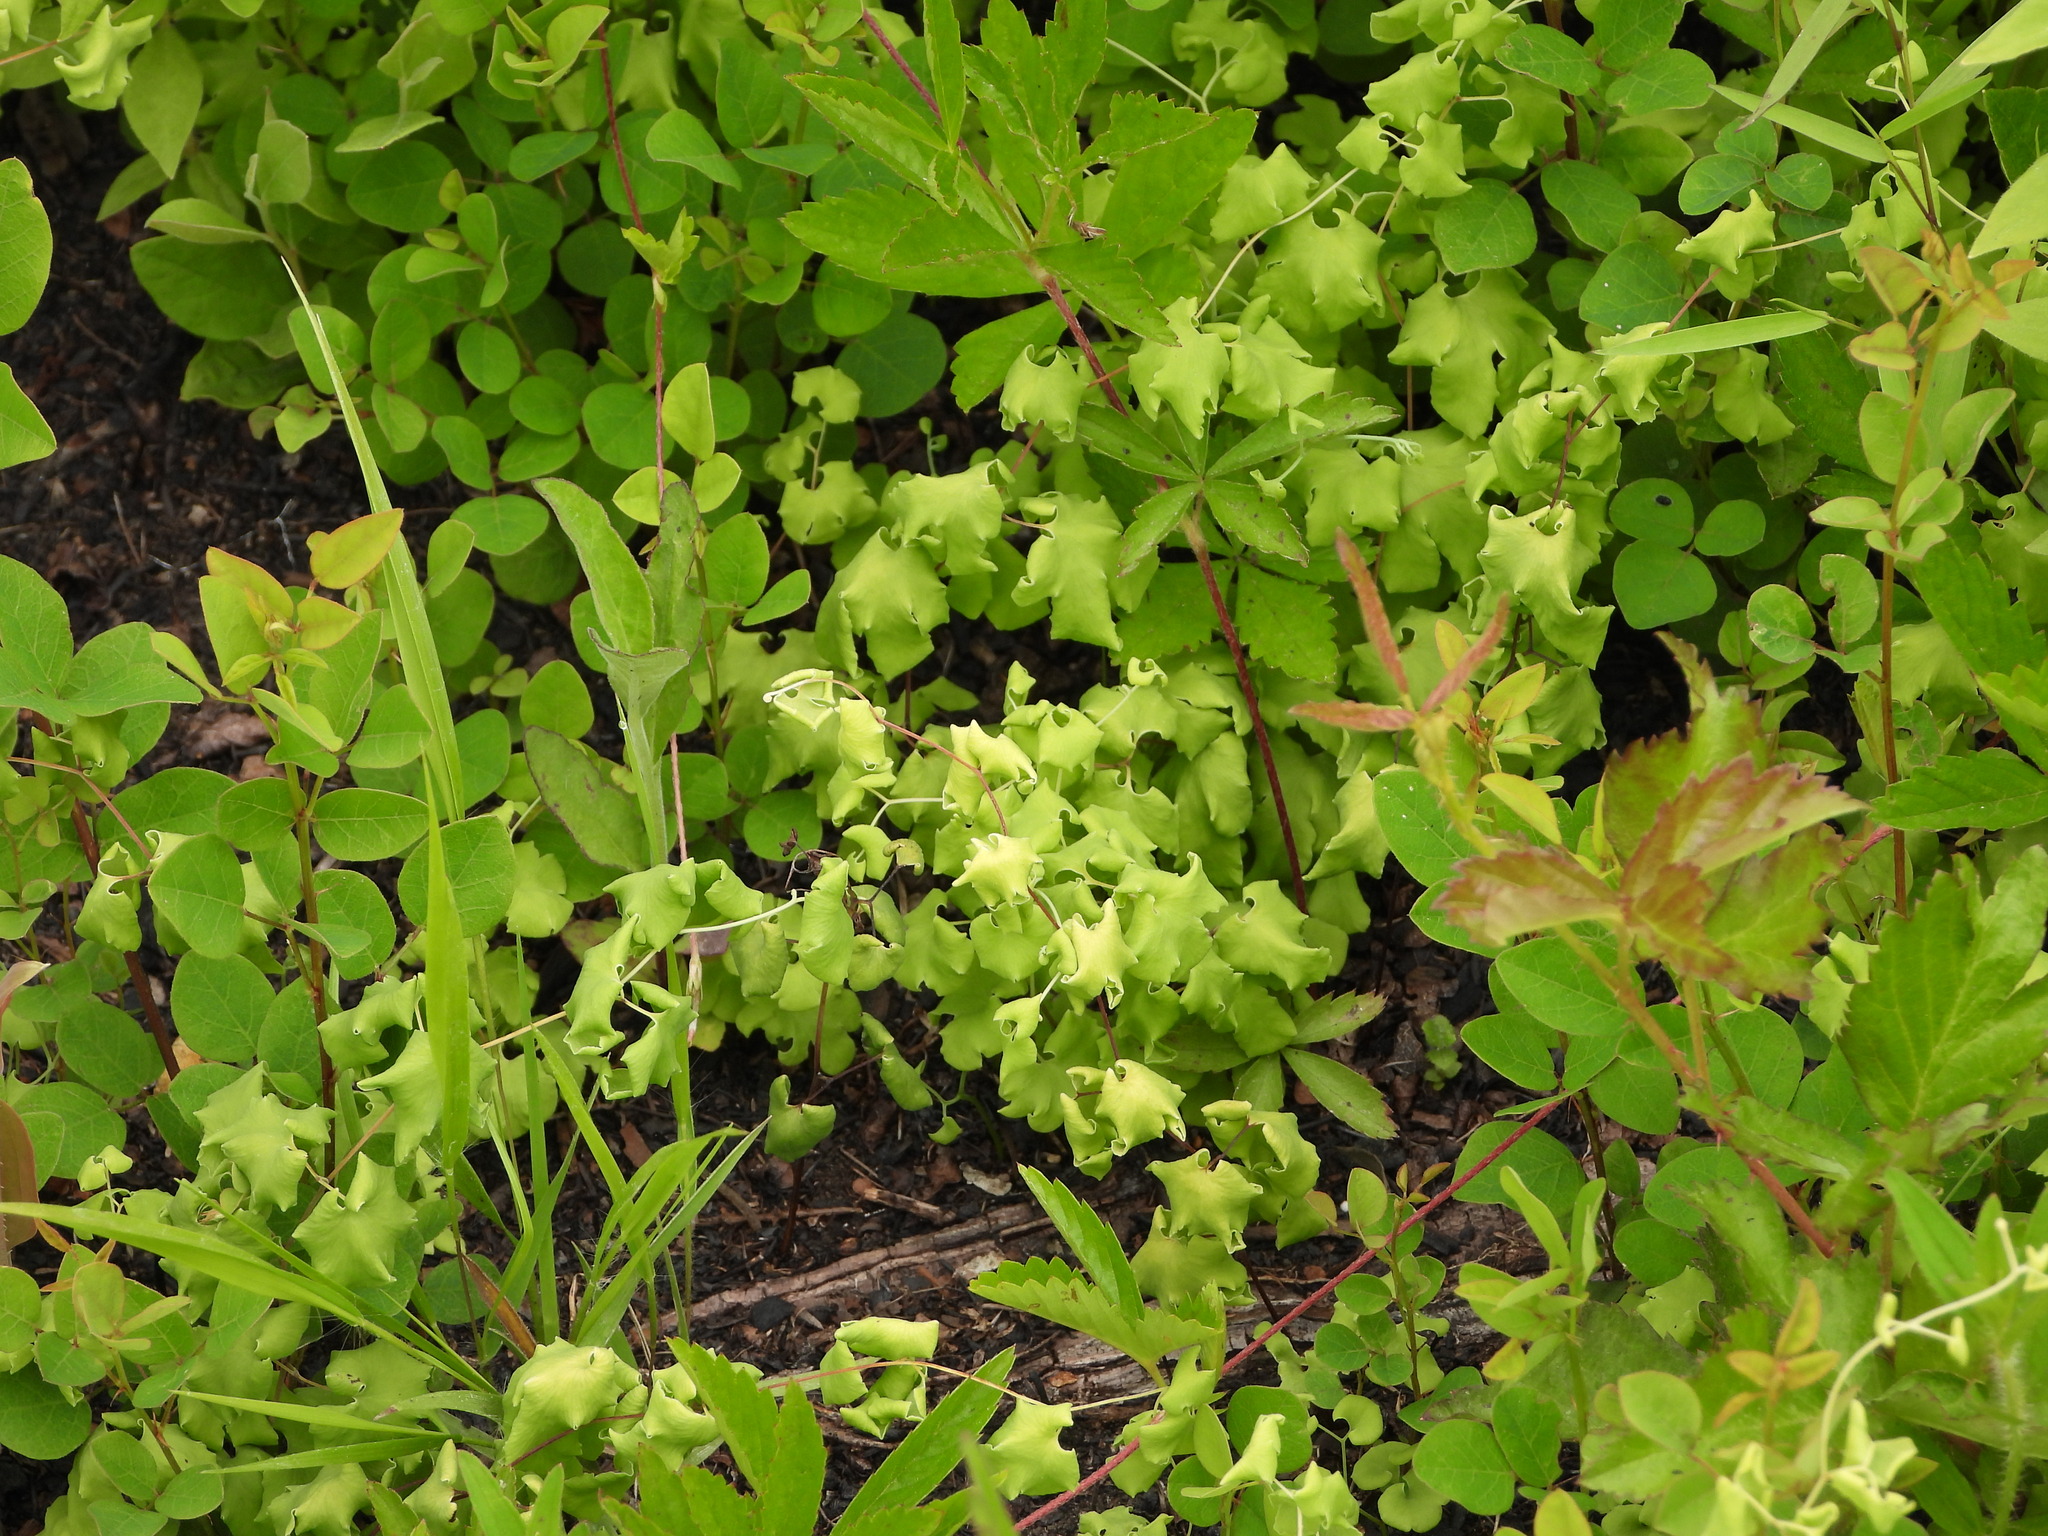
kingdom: Plantae
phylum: Tracheophyta
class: Polypodiopsida
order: Schizaeales
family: Lygodiaceae
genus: Lygodium
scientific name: Lygodium palmatum
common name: American climbing fern
